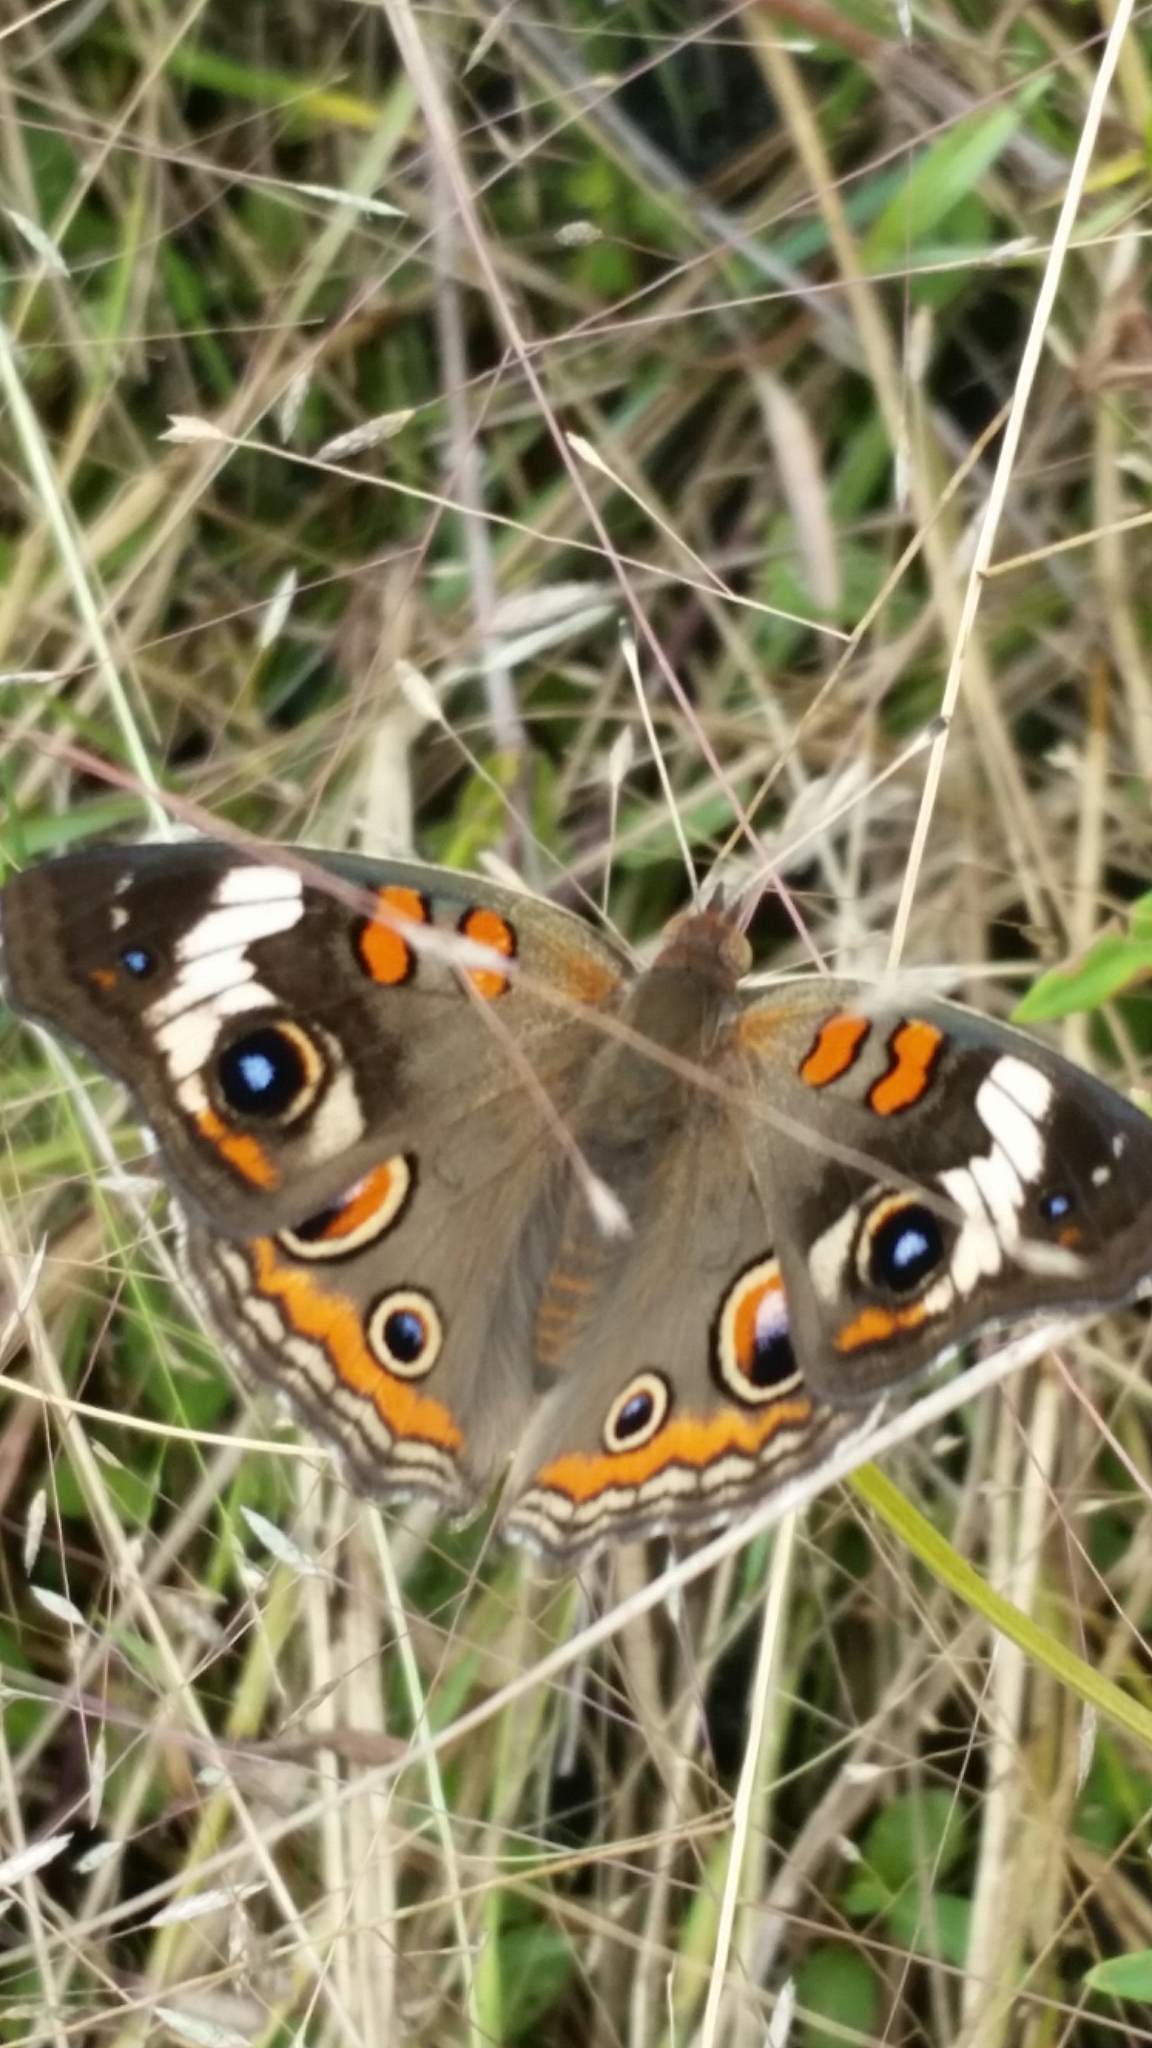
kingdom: Animalia
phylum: Arthropoda
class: Insecta
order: Lepidoptera
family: Nymphalidae
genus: Junonia
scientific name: Junonia coenia
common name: Common buckeye
